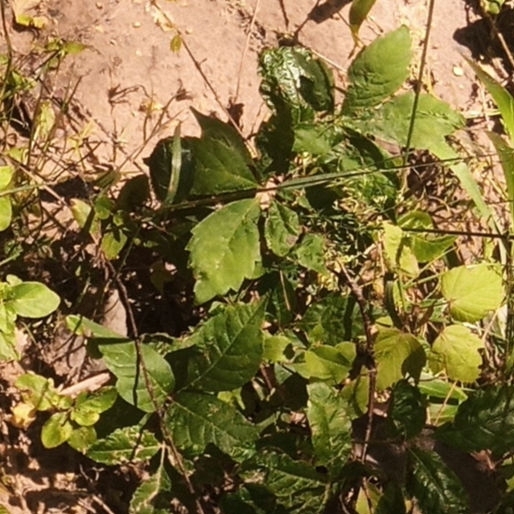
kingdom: Plantae
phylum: Tracheophyta
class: Magnoliopsida
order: Sapindales
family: Anacardiaceae
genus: Toxicodendron
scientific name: Toxicodendron radicans
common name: Poison ivy
